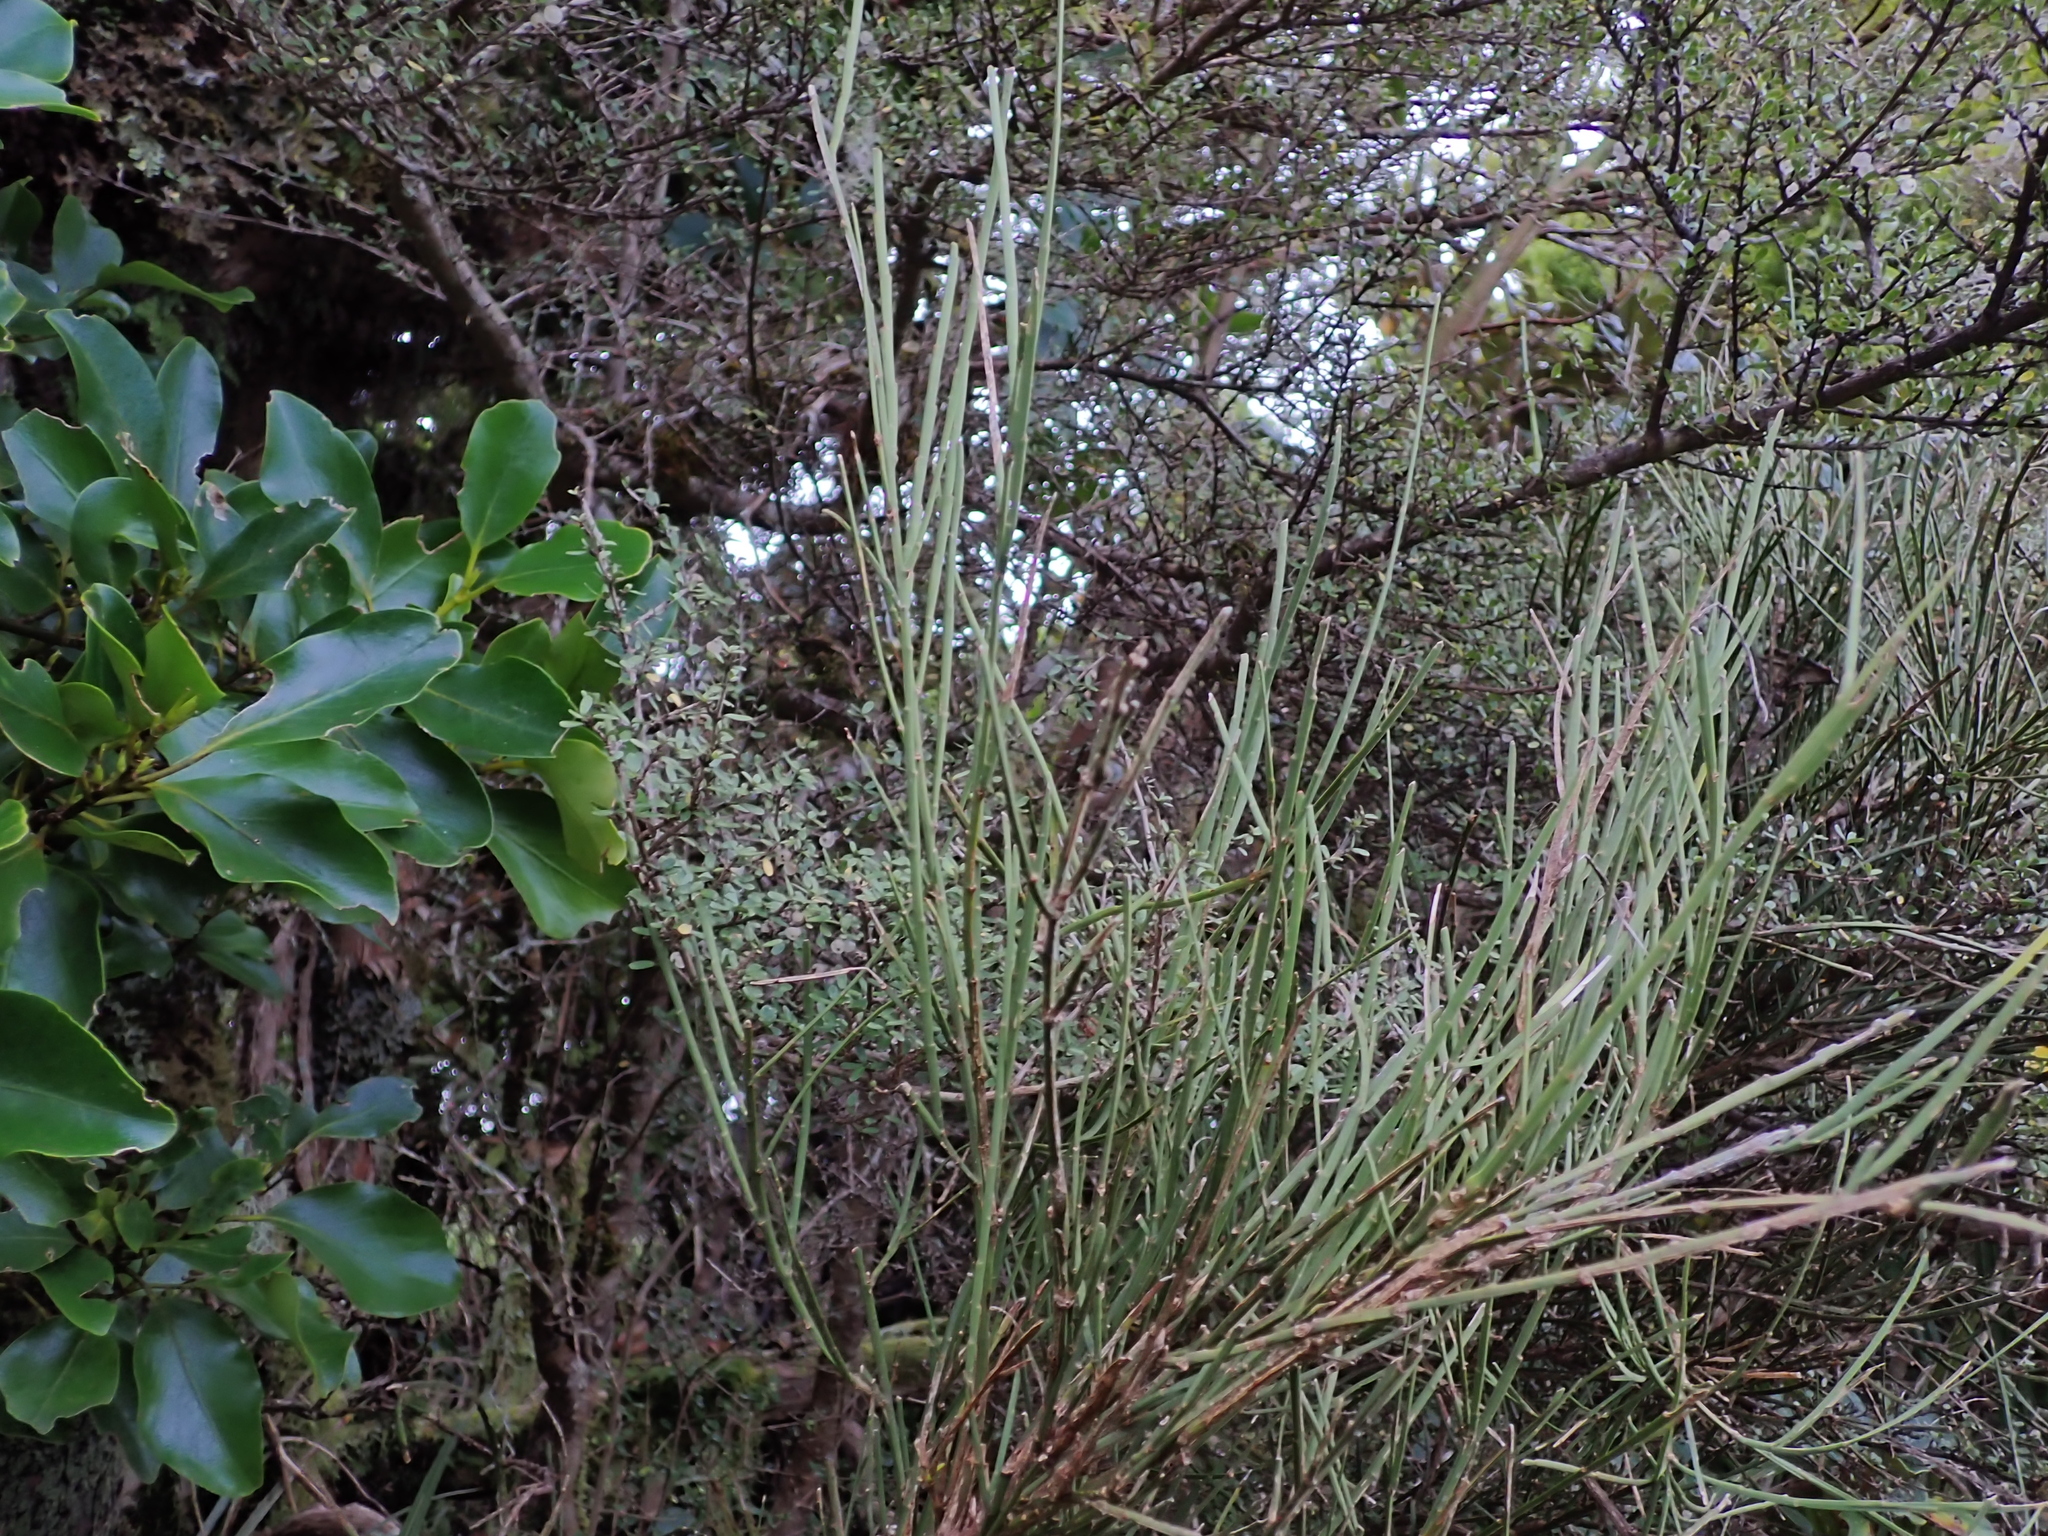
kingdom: Plantae
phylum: Tracheophyta
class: Magnoliopsida
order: Fabales
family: Fabaceae
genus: Carmichaelia
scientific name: Carmichaelia australis
